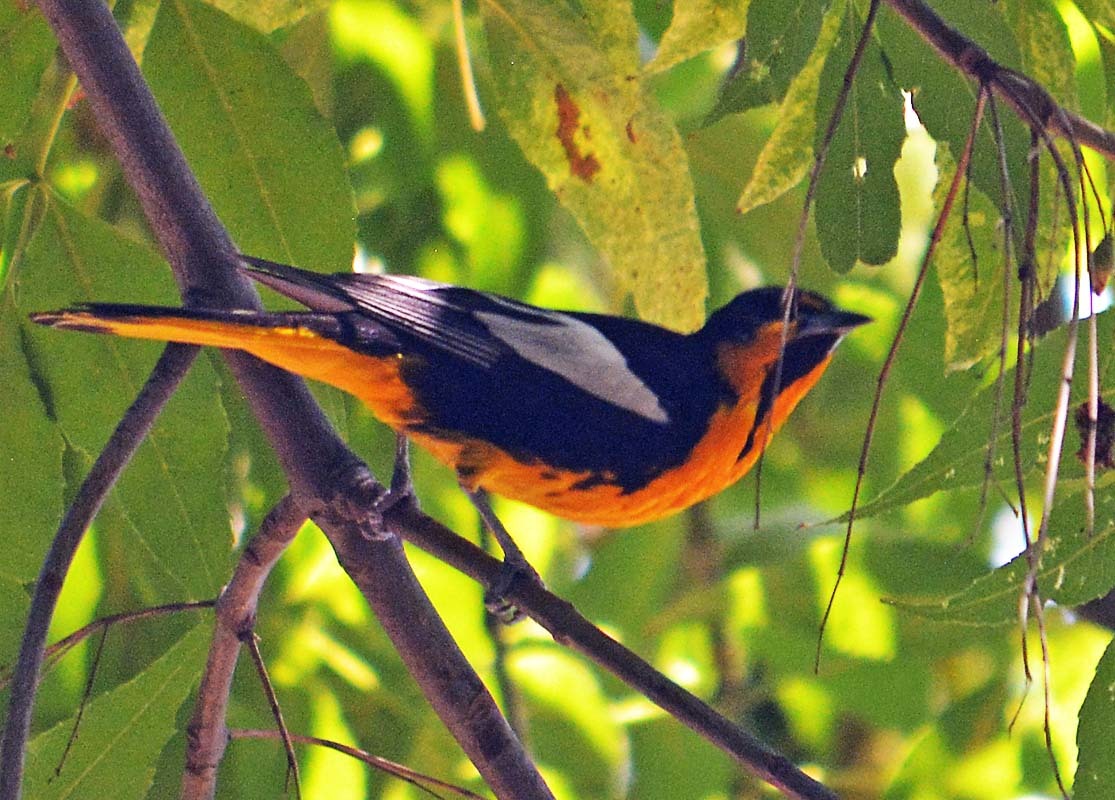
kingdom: Animalia
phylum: Chordata
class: Aves
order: Passeriformes
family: Icteridae
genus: Icterus
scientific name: Icterus abeillei
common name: Black-backed oriole
